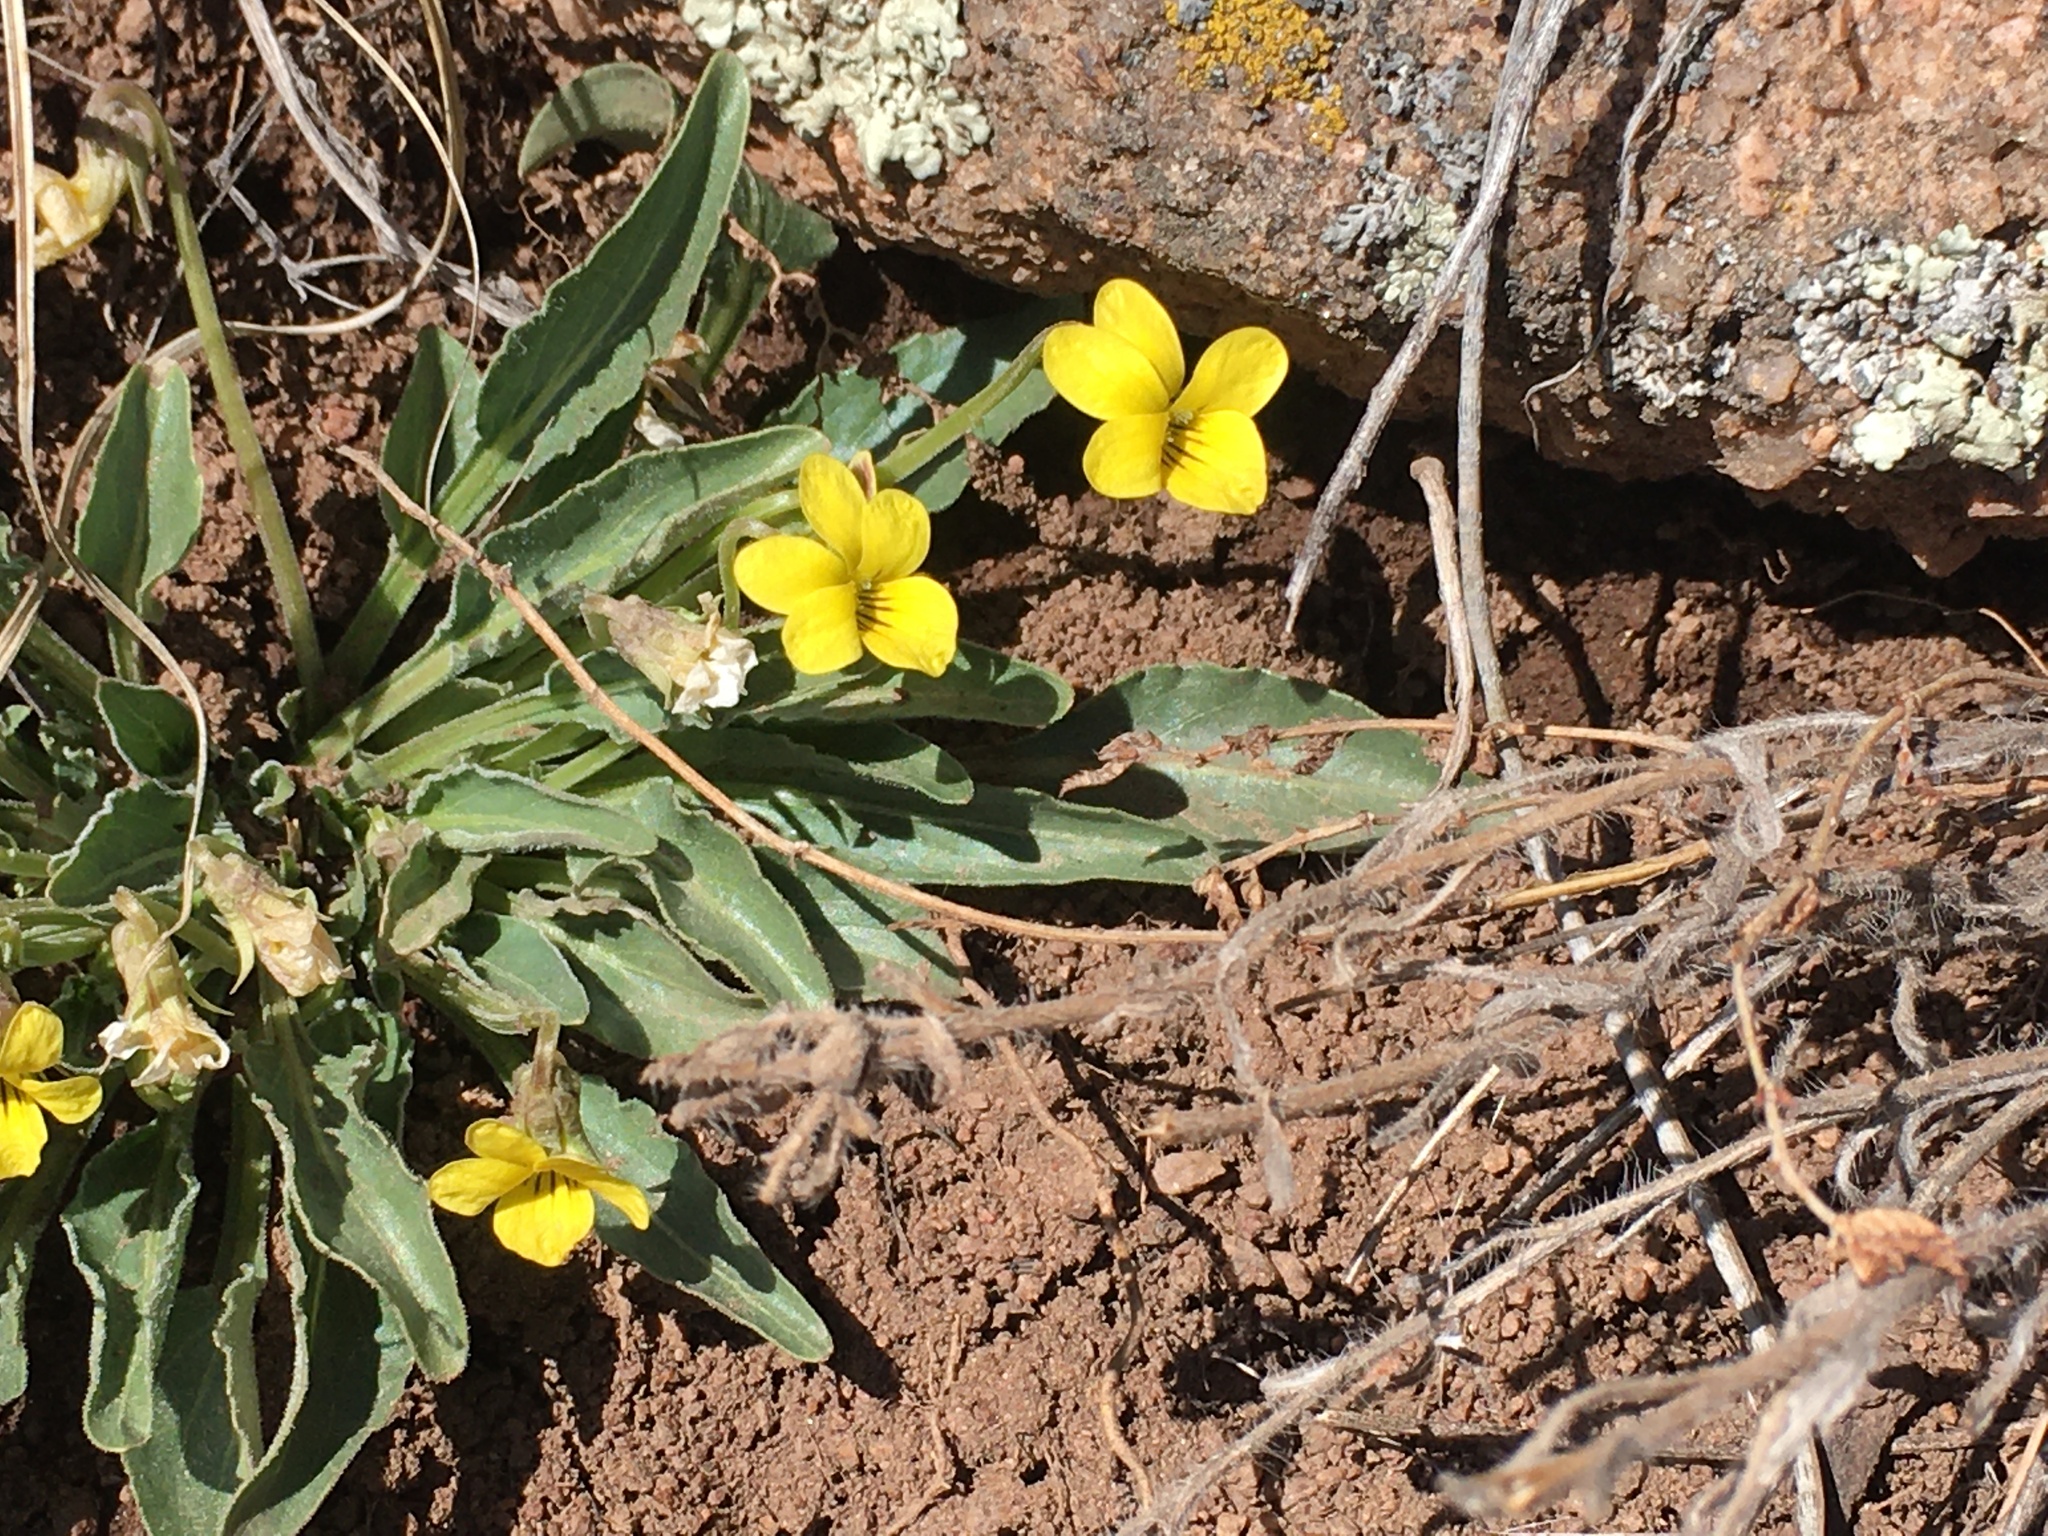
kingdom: Plantae
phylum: Tracheophyta
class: Magnoliopsida
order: Malpighiales
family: Violaceae
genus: Viola
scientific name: Viola nuttallii
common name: Yellow prairie violet
